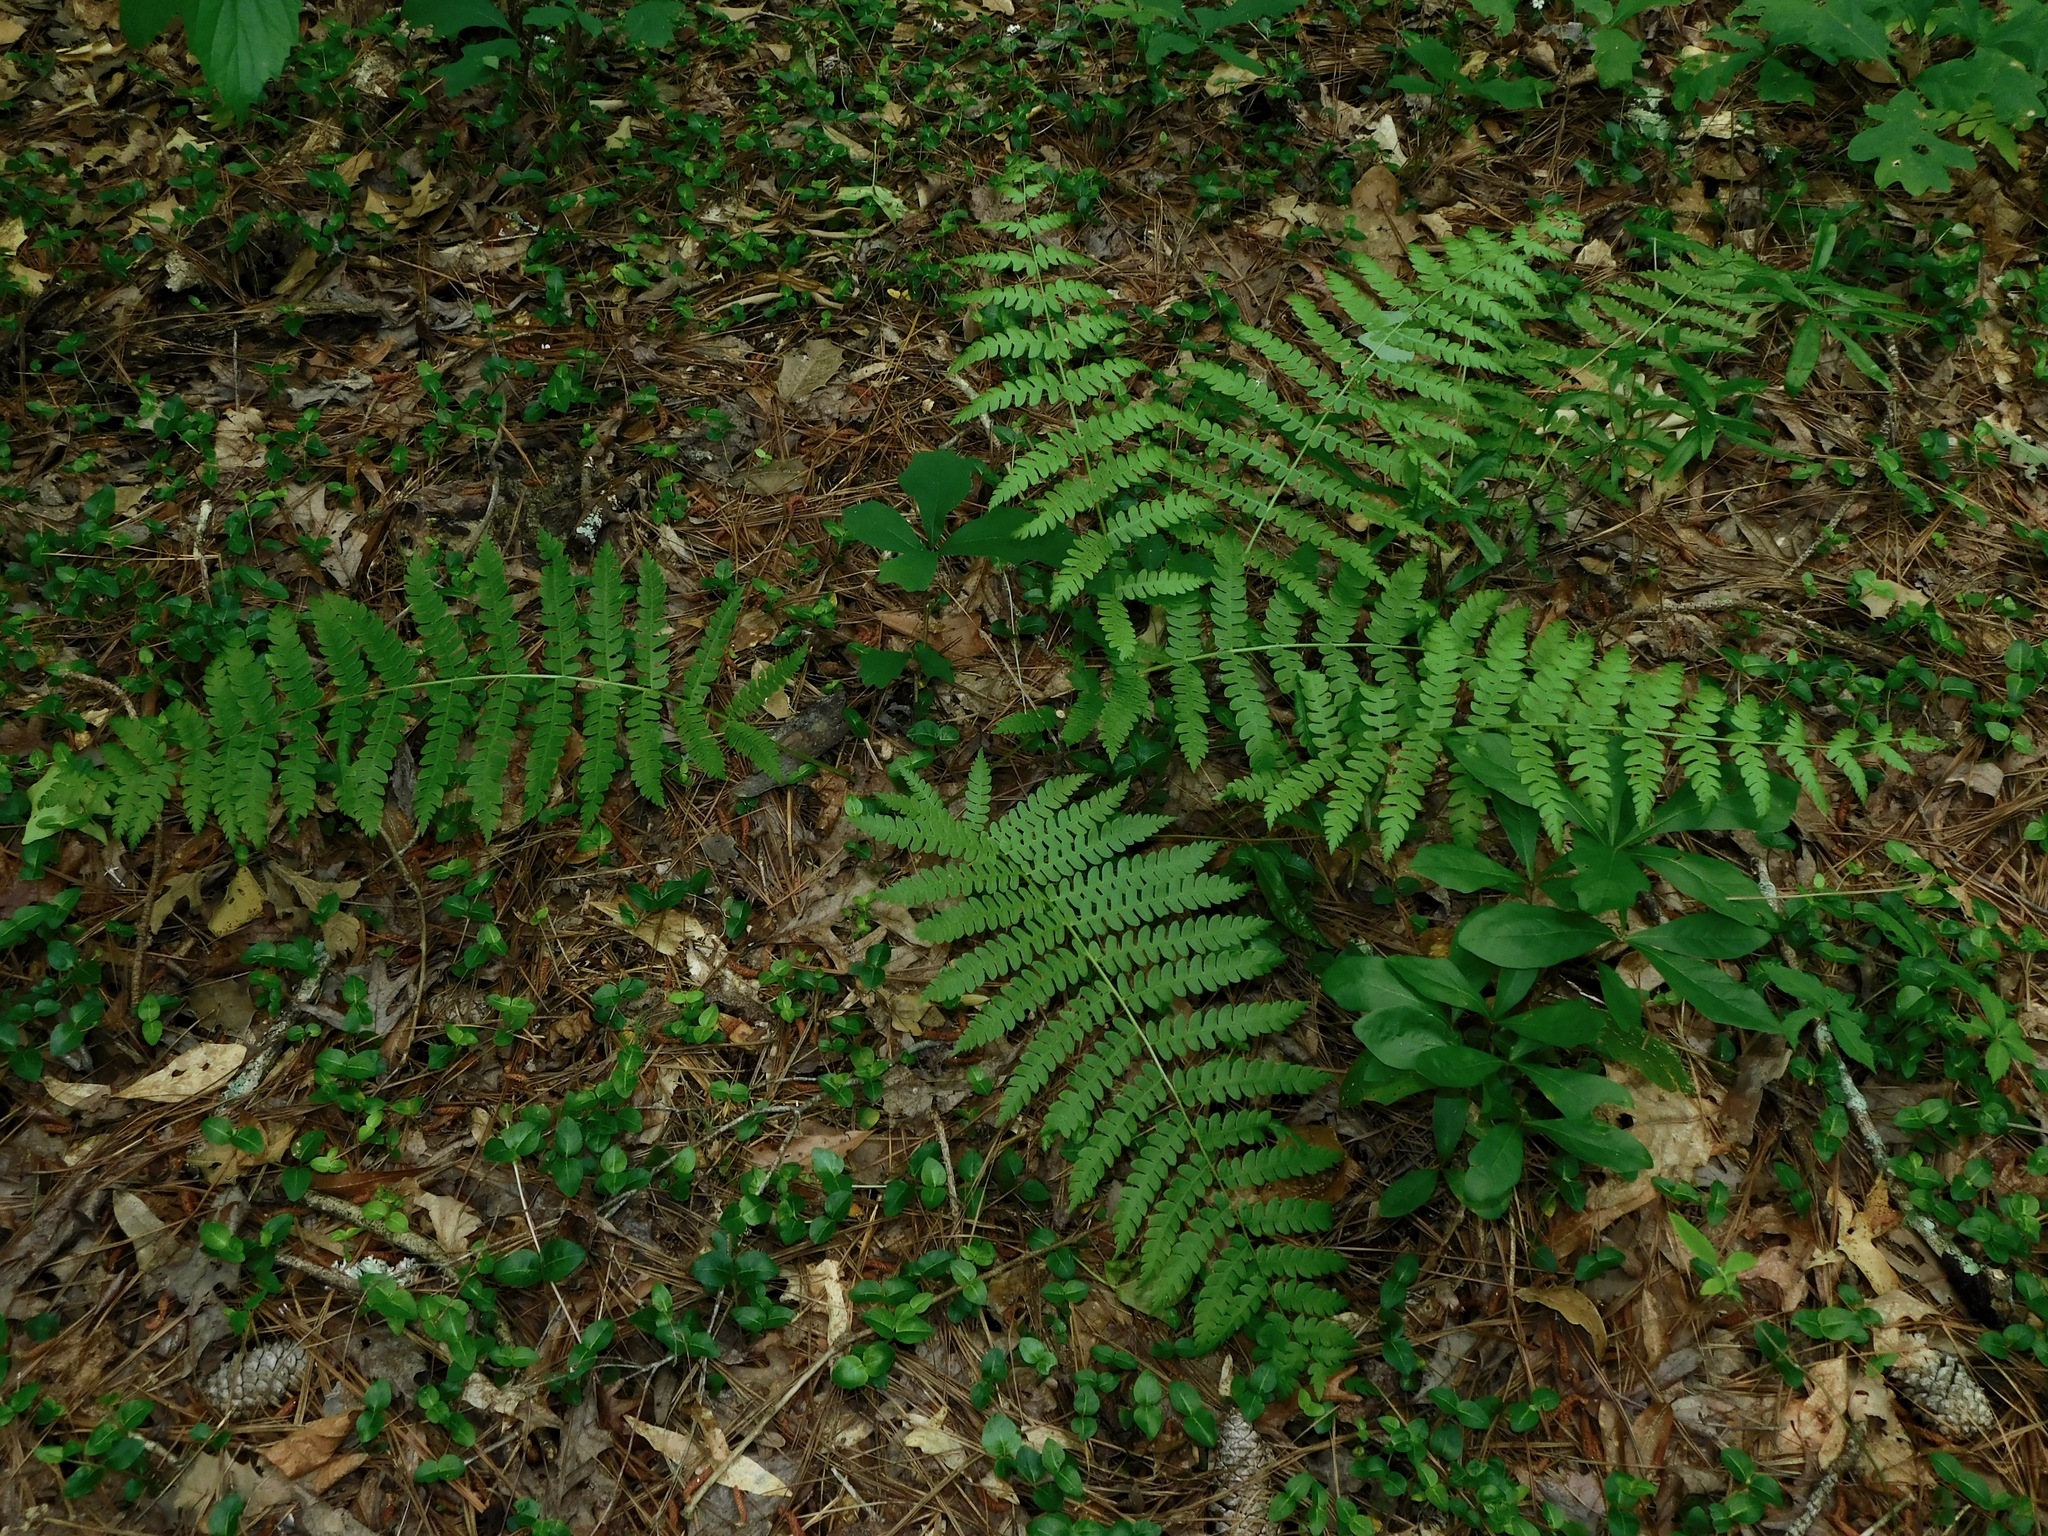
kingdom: Plantae
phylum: Tracheophyta
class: Polypodiopsida
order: Osmundales
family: Osmundaceae
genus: Osmundastrum
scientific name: Osmundastrum cinnamomeum
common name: Cinnamon fern
